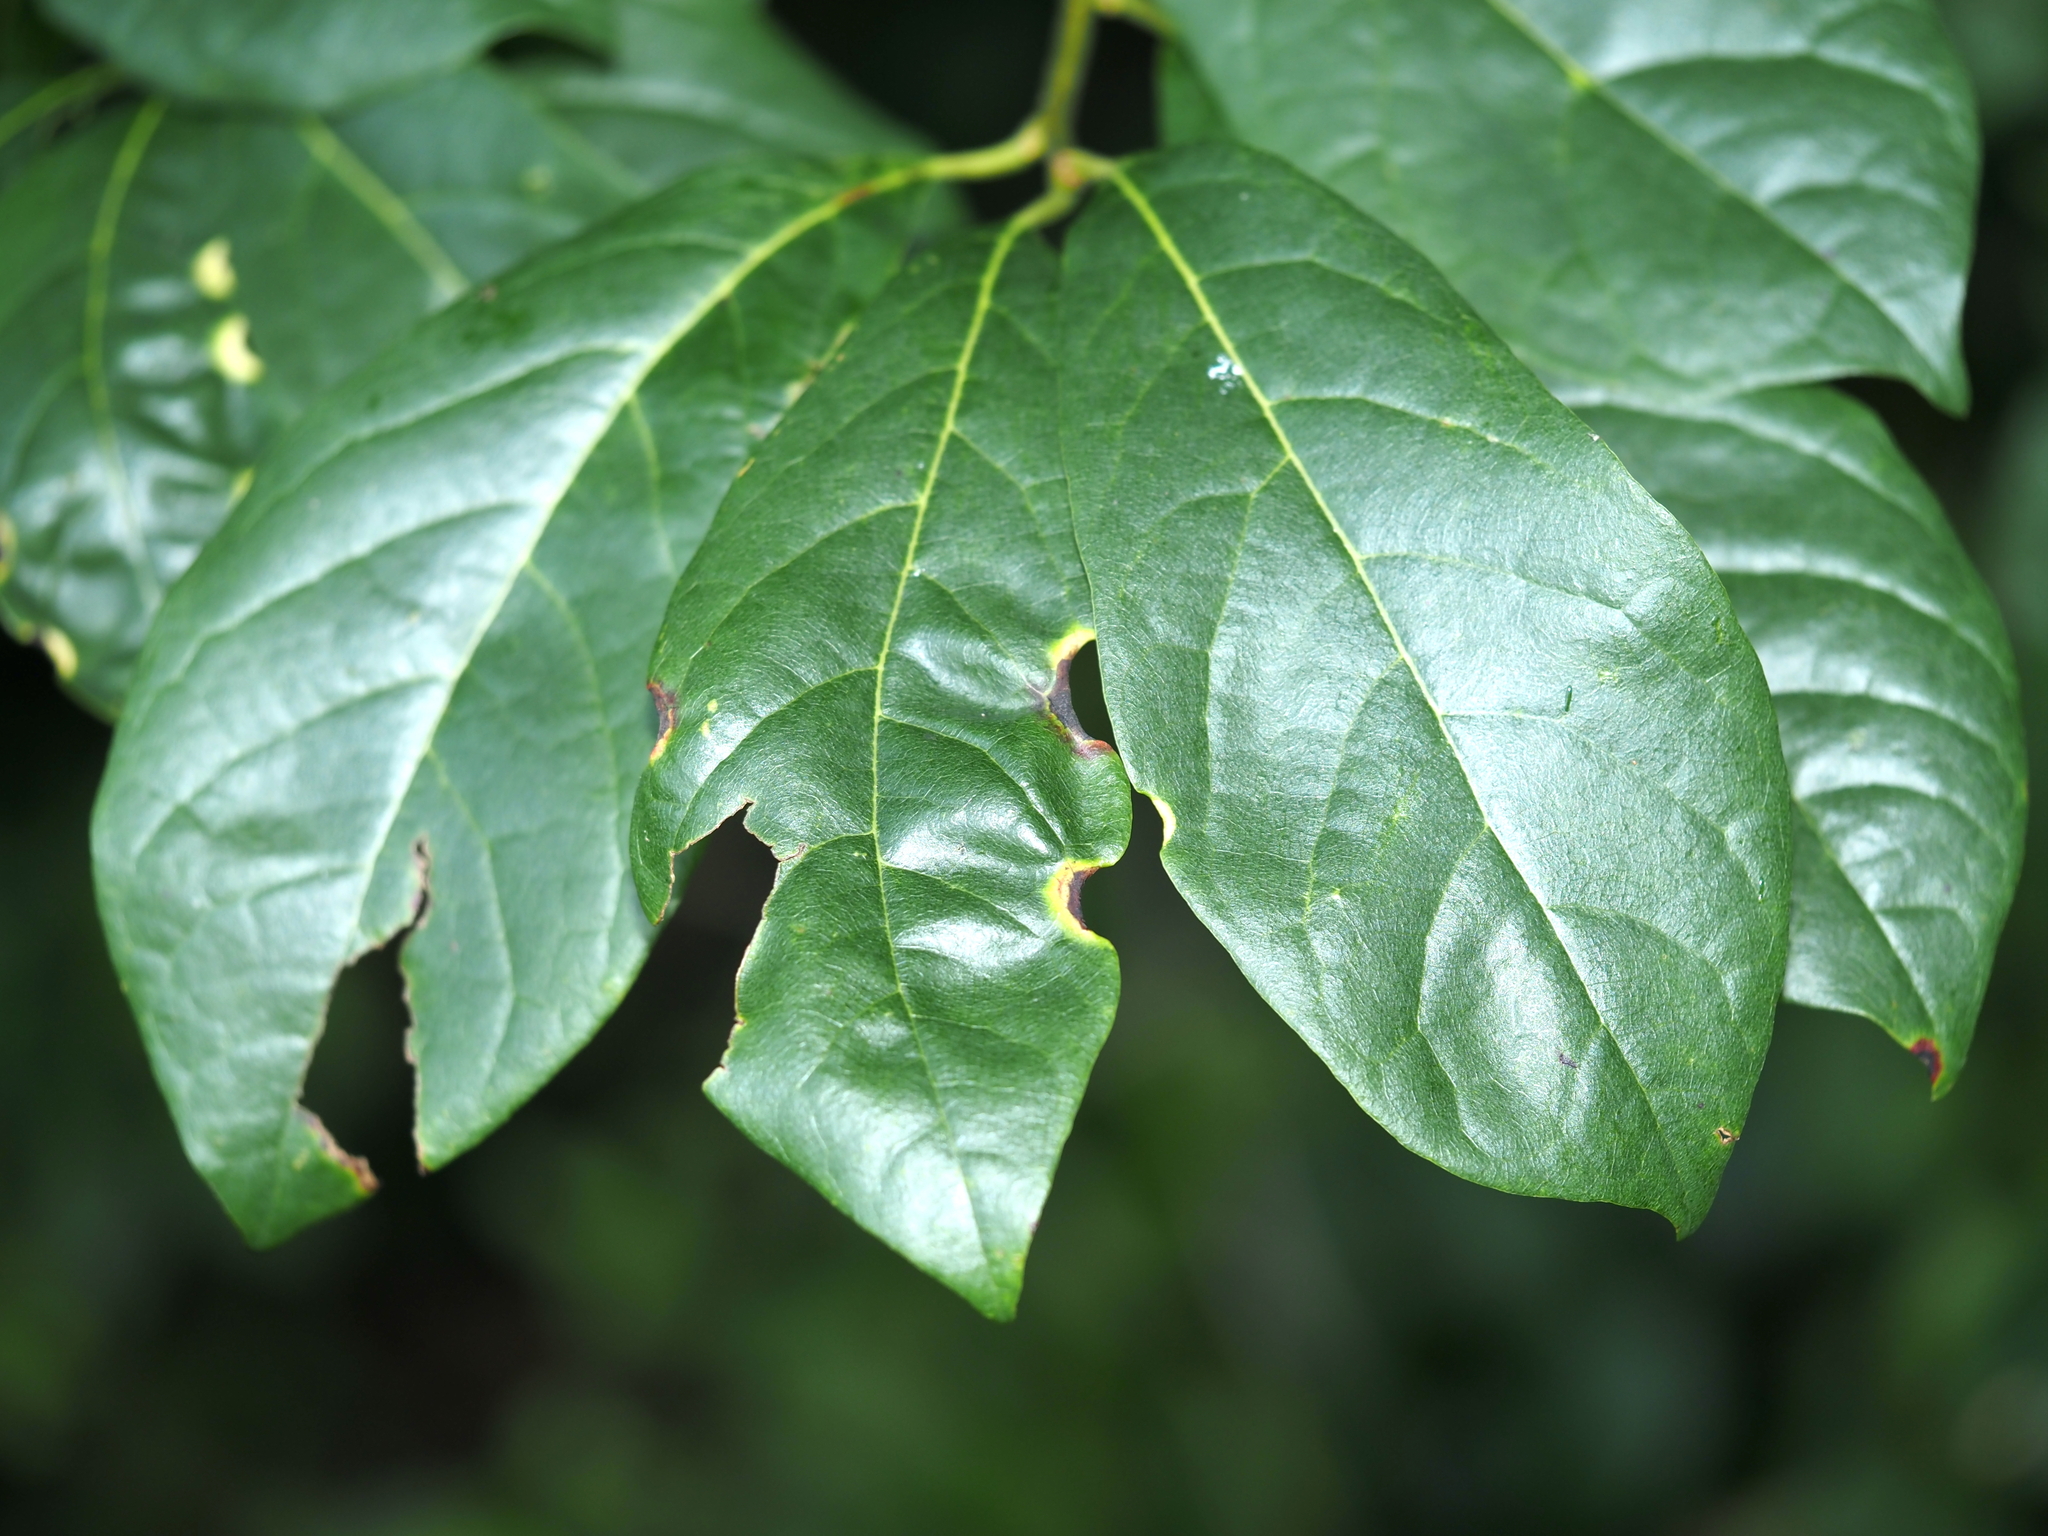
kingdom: Animalia
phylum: Arthropoda
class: Insecta
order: Hemiptera
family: Phylloxeridae
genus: Phylloxerina
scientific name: Phylloxerina nyssae
